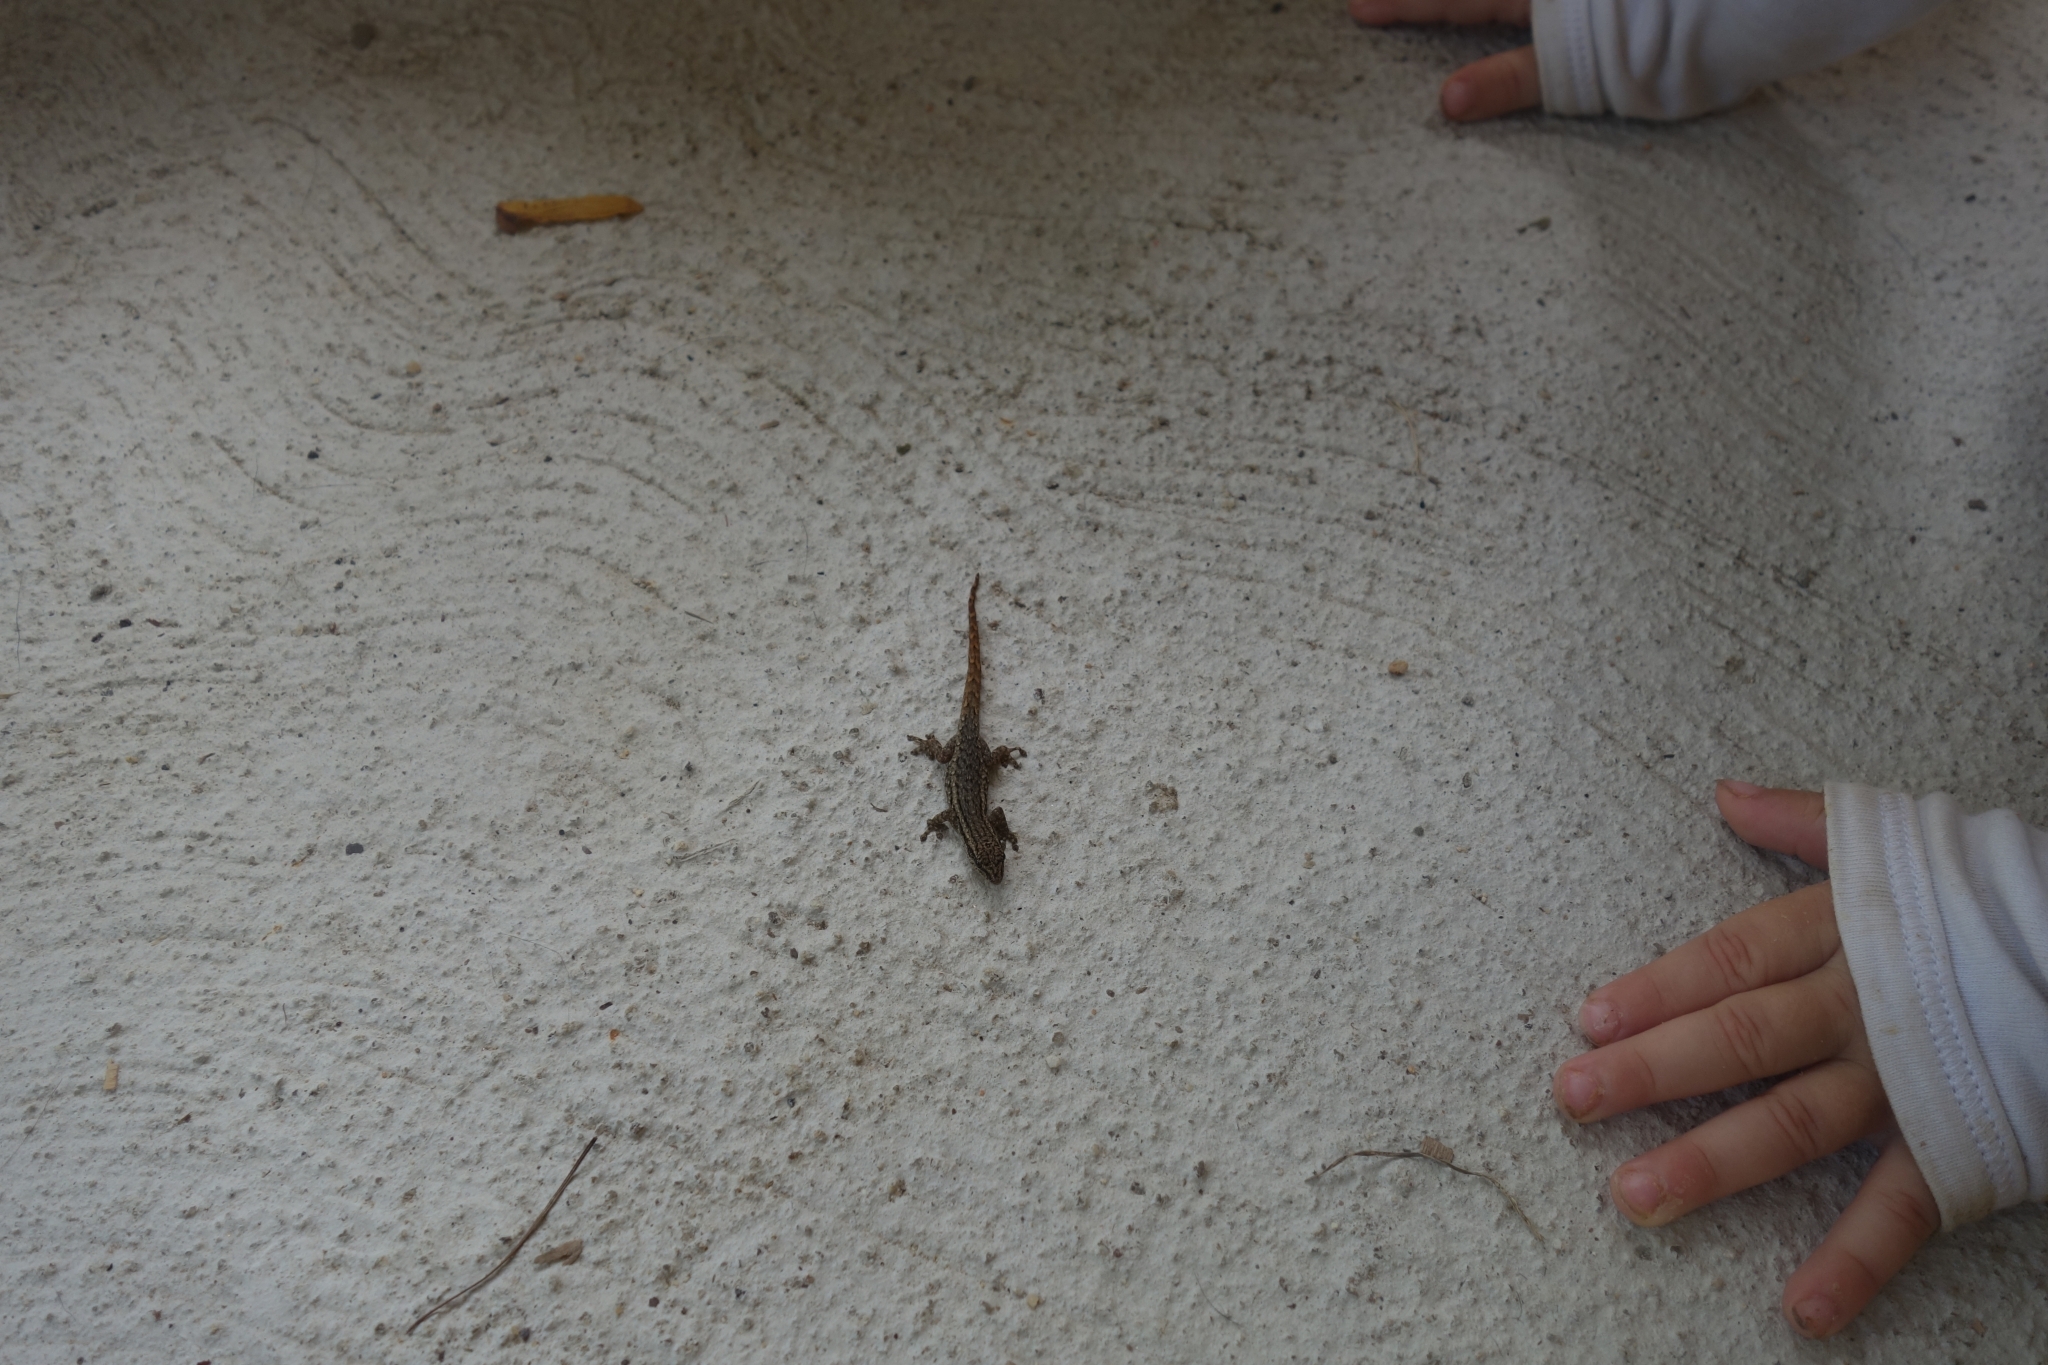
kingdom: Animalia
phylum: Chordata
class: Squamata
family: Gekkonidae
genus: Lygodactylus
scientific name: Lygodactylus capensis
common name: Cape dwarf gecko
